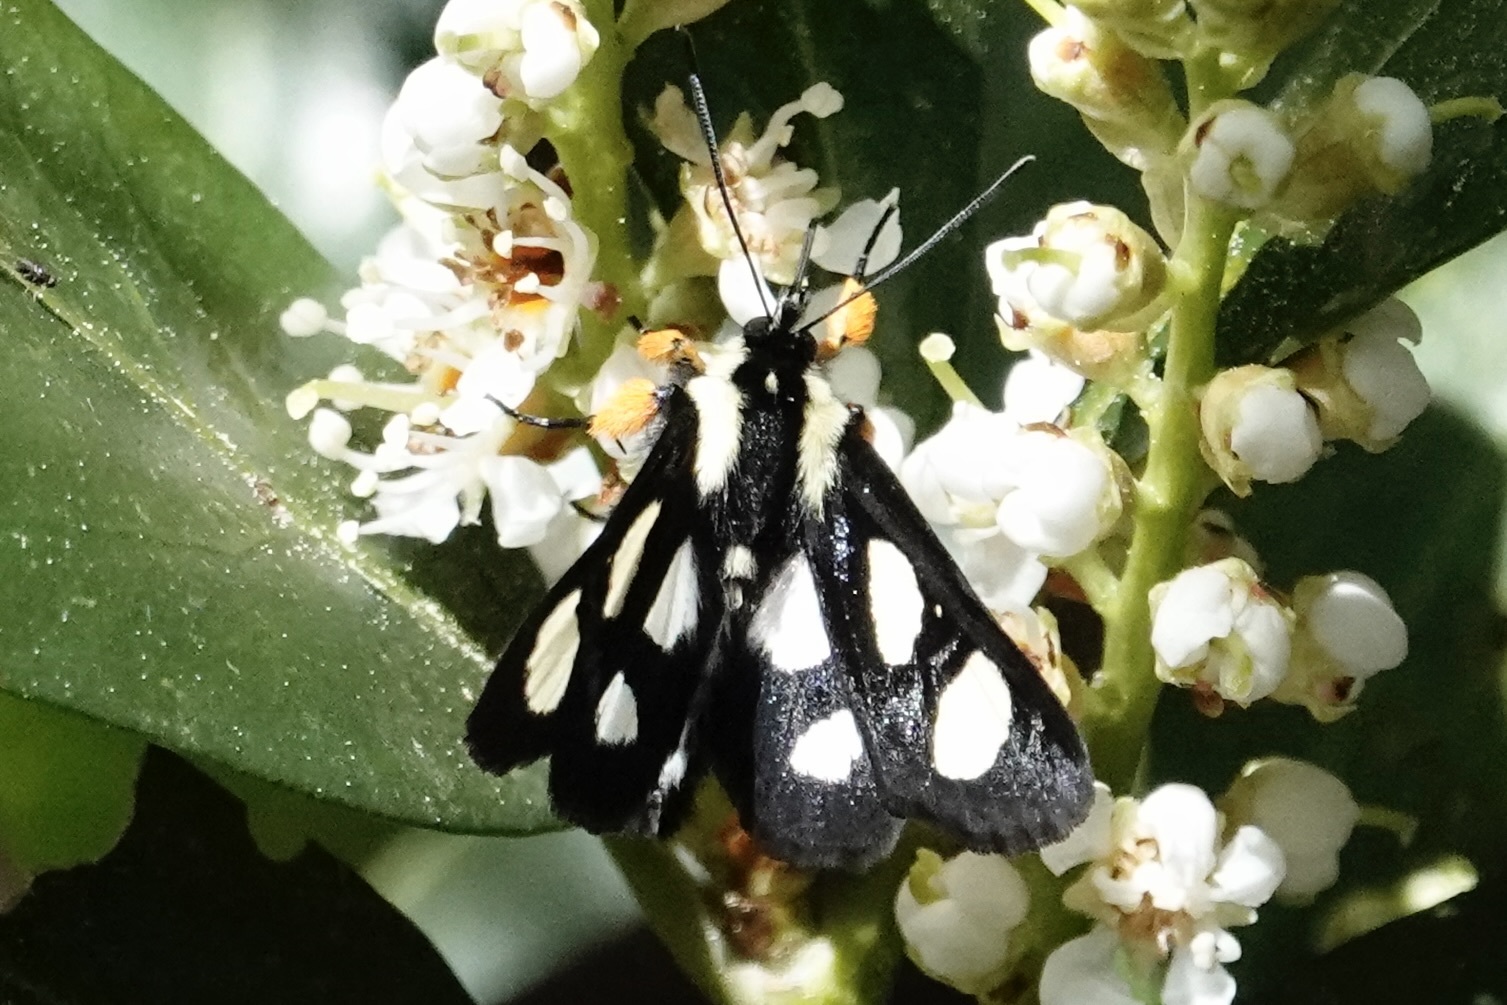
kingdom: Animalia
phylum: Arthropoda
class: Insecta
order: Lepidoptera
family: Noctuidae
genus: Alypia
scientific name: Alypia octomaculata
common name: Eight-spotted forester
